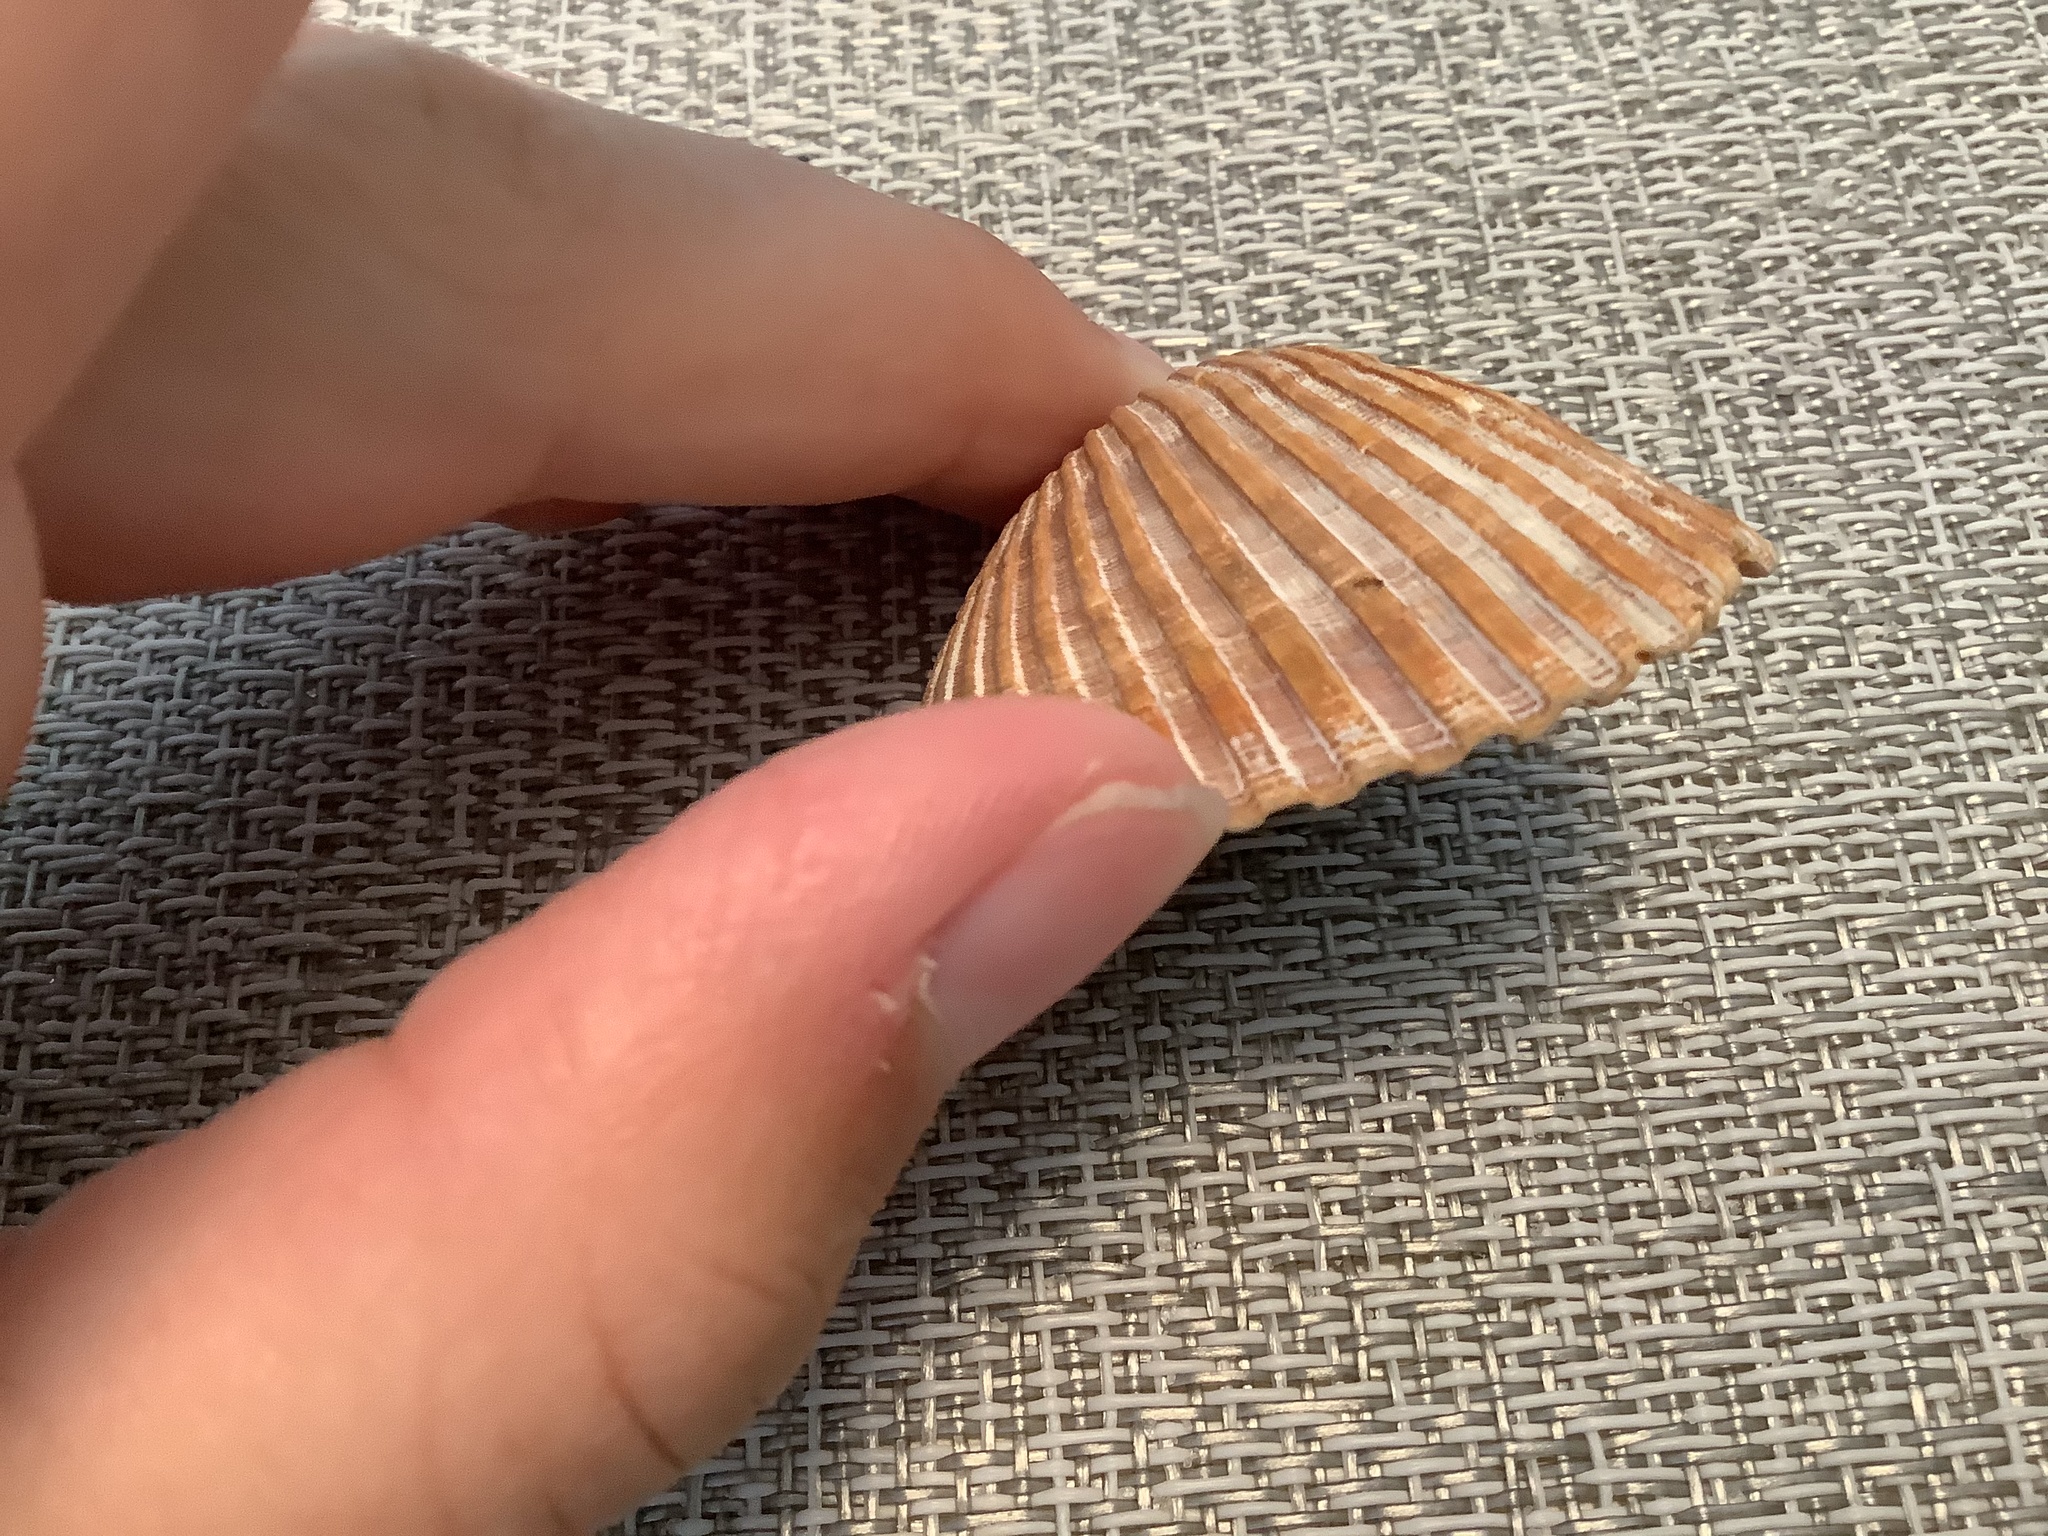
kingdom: Animalia
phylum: Mollusca
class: Bivalvia
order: Arcida
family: Noetiidae
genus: Noetia
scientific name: Noetia ponderosa
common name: Ponderous ark
